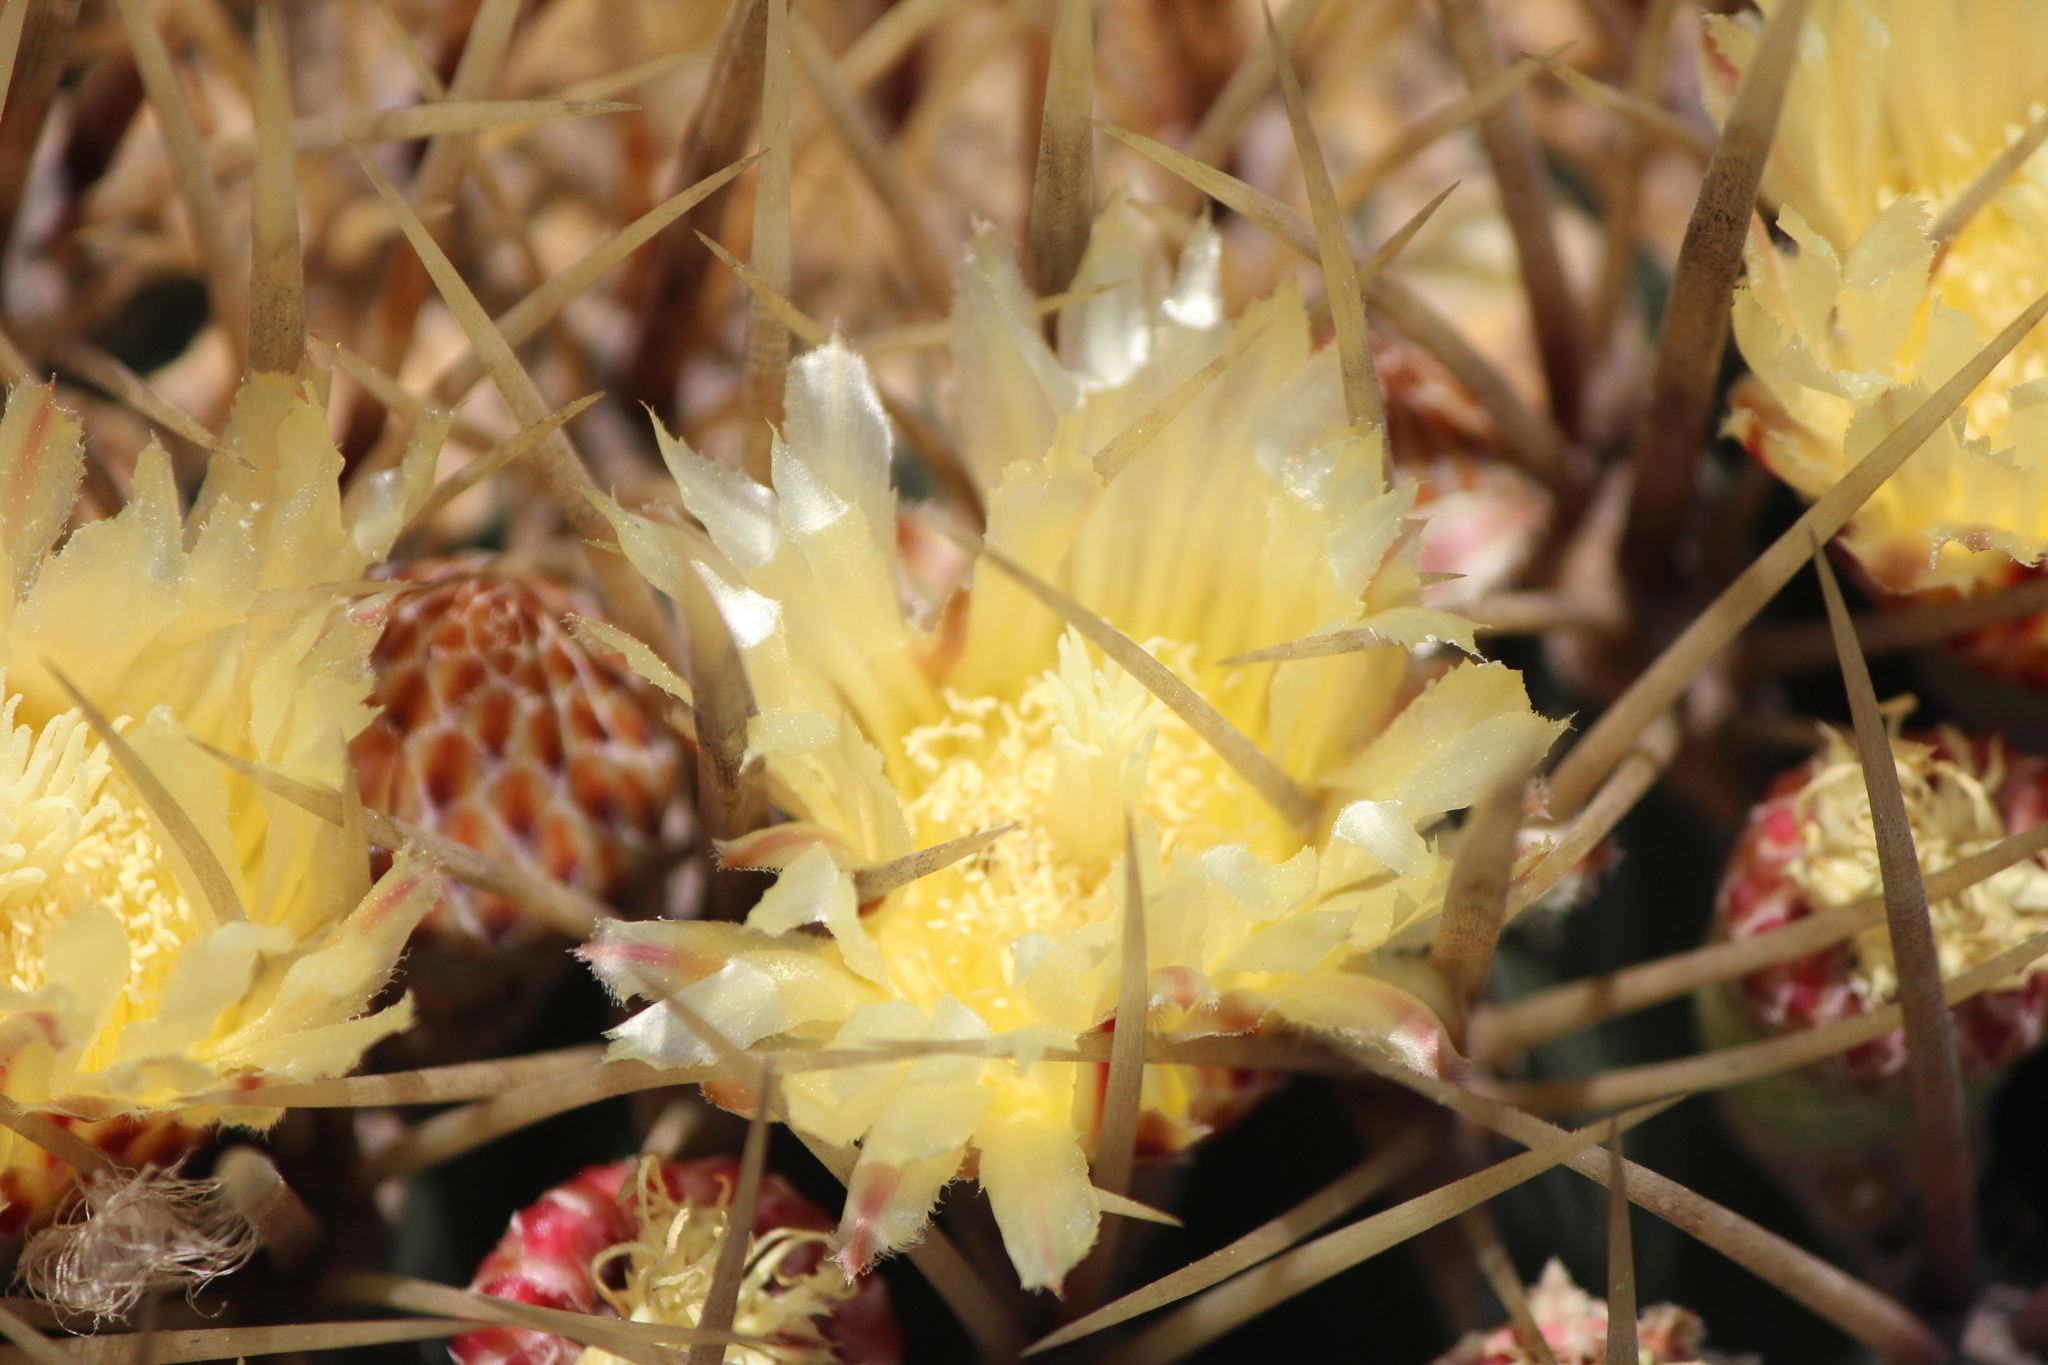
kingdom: Plantae
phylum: Tracheophyta
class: Magnoliopsida
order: Caryophyllales
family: Cactaceae
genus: Bisnaga
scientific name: Bisnaga histrix
